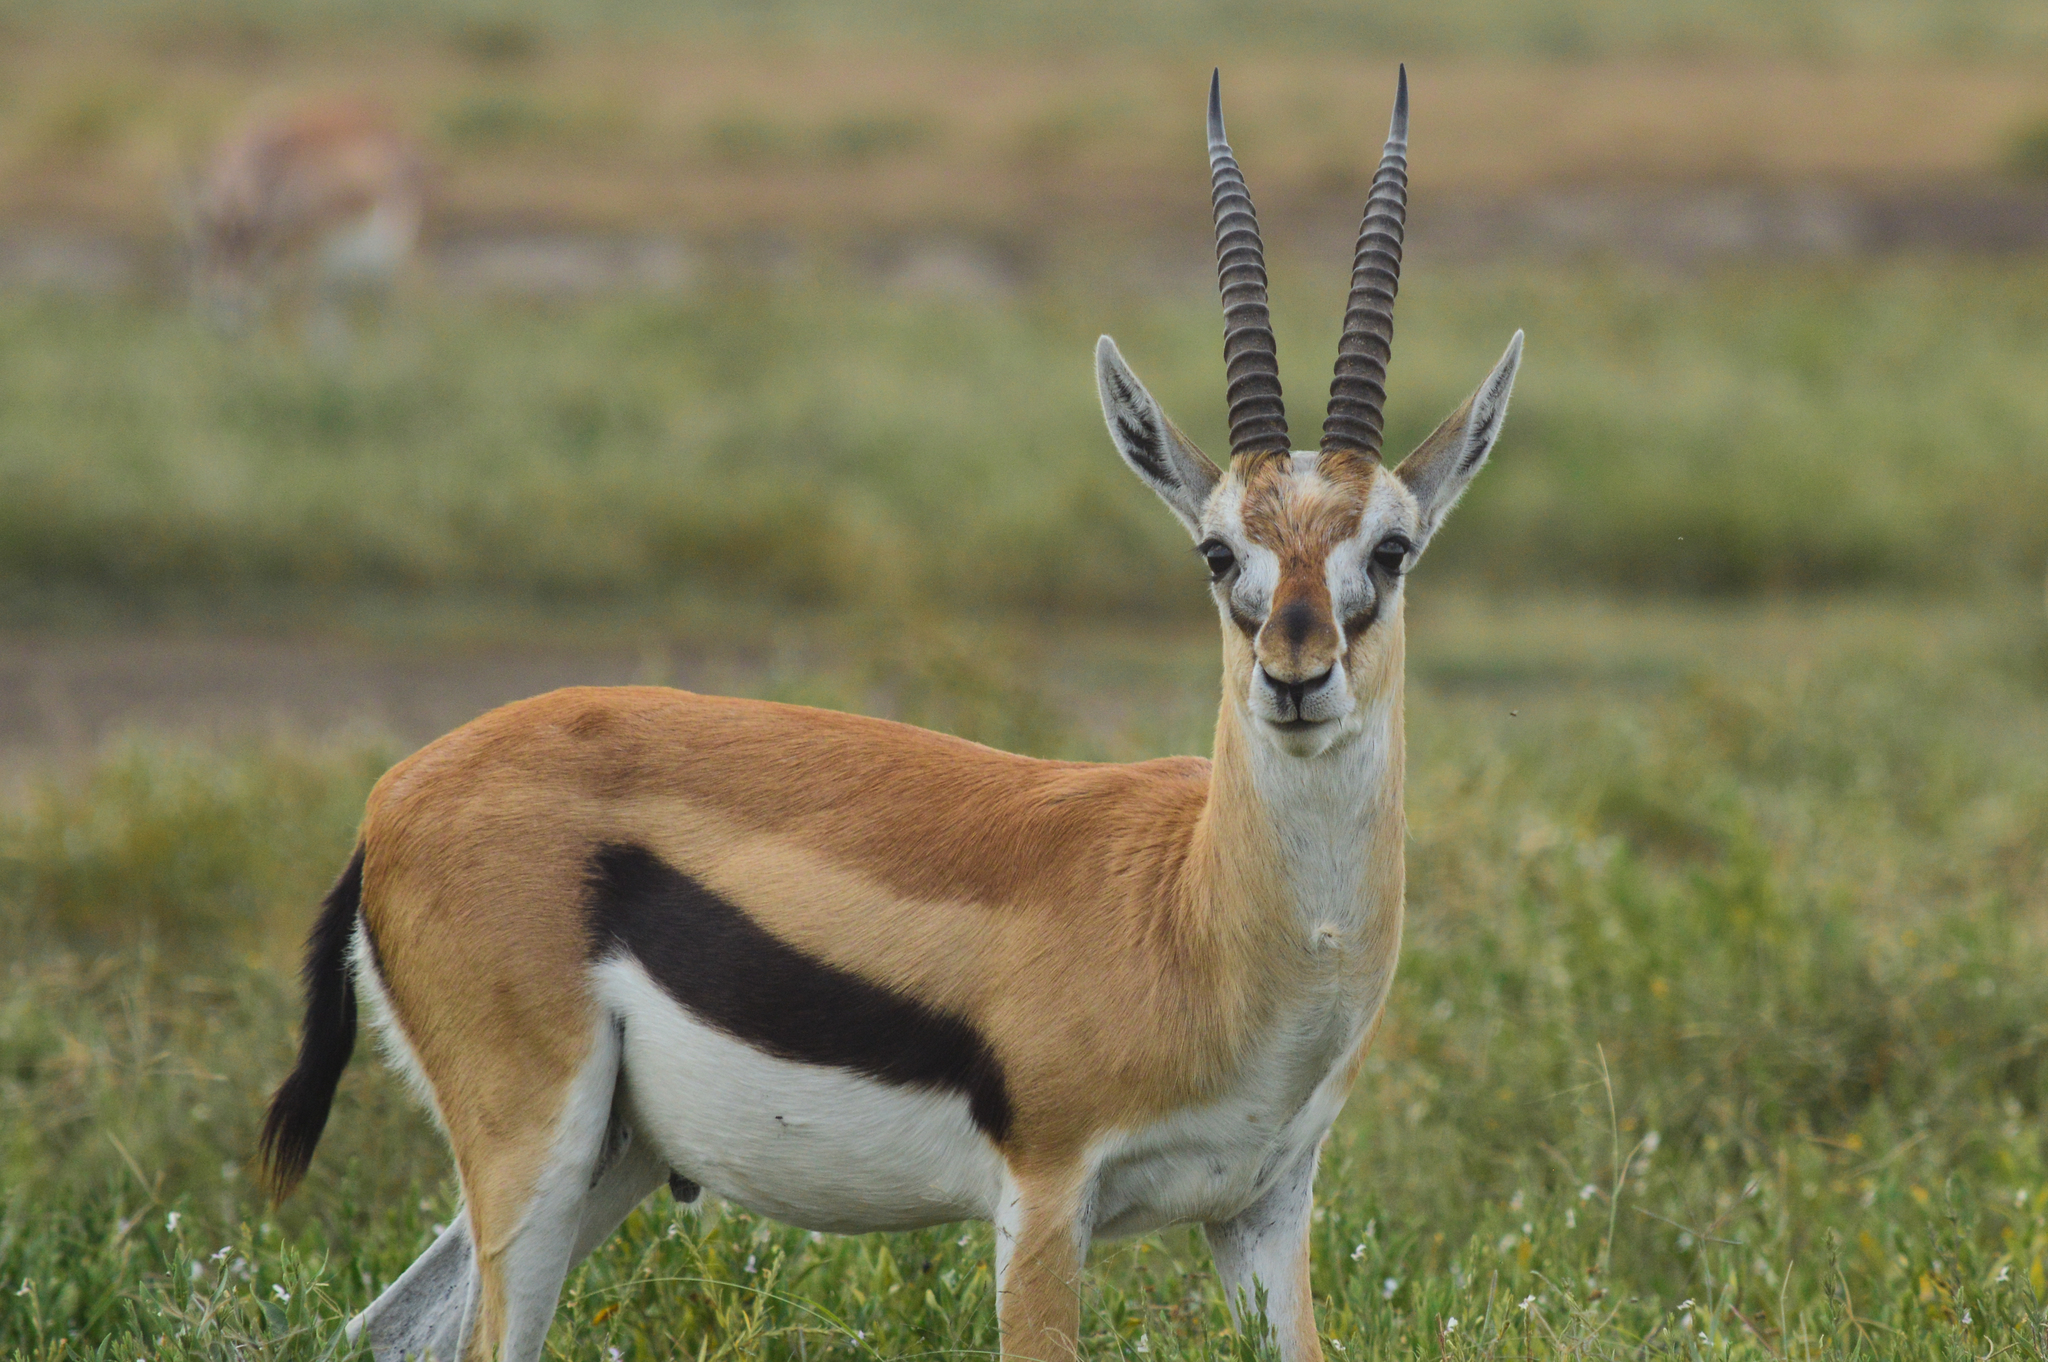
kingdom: Animalia
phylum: Chordata
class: Mammalia
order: Artiodactyla
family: Bovidae
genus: Eudorcas
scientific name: Eudorcas thomsonii
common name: Thomson's gazelle
